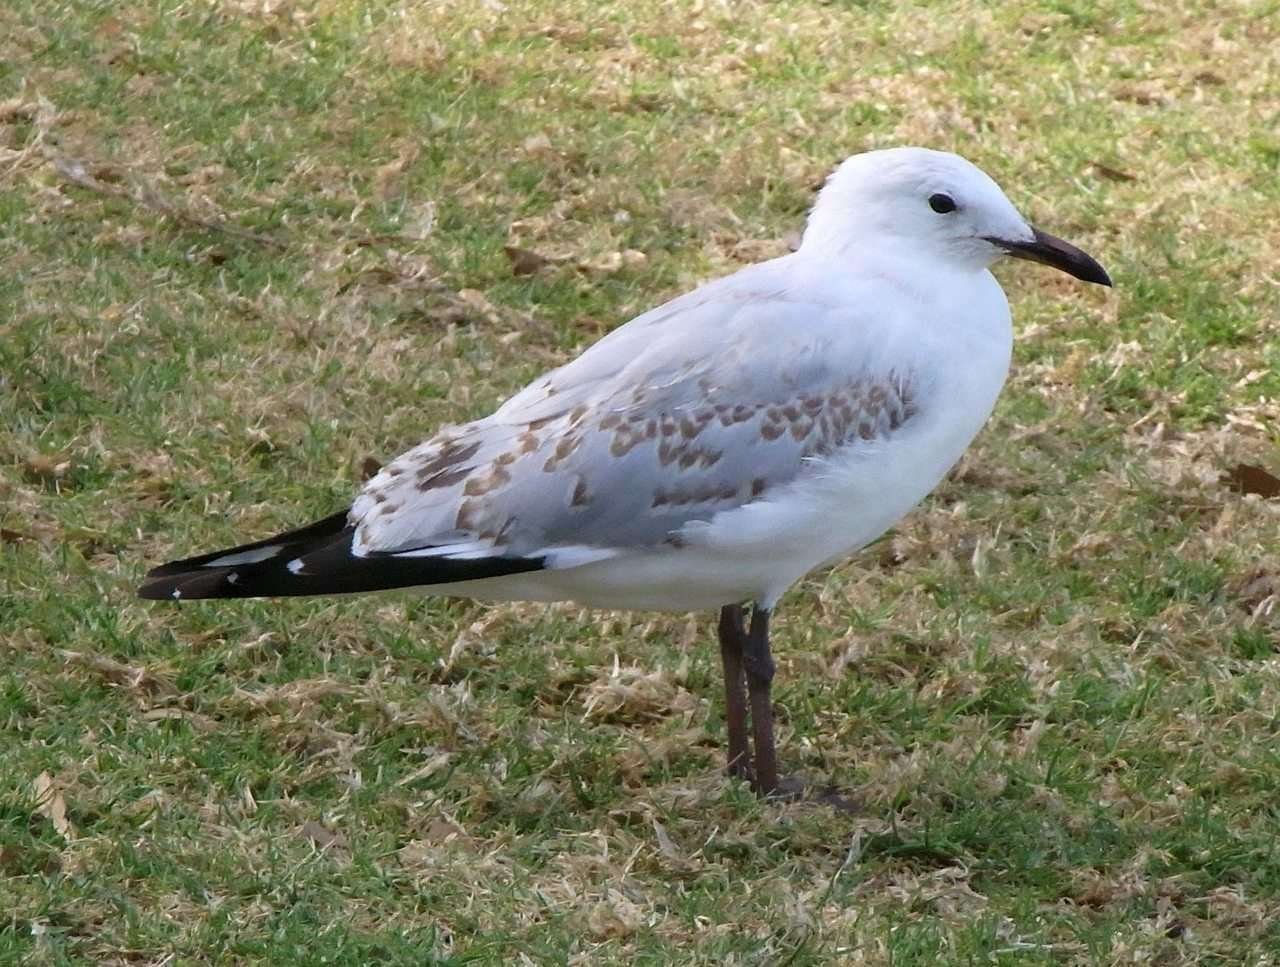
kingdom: Animalia
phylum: Chordata
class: Aves
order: Charadriiformes
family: Laridae
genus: Chroicocephalus
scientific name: Chroicocephalus novaehollandiae
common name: Silver gull
